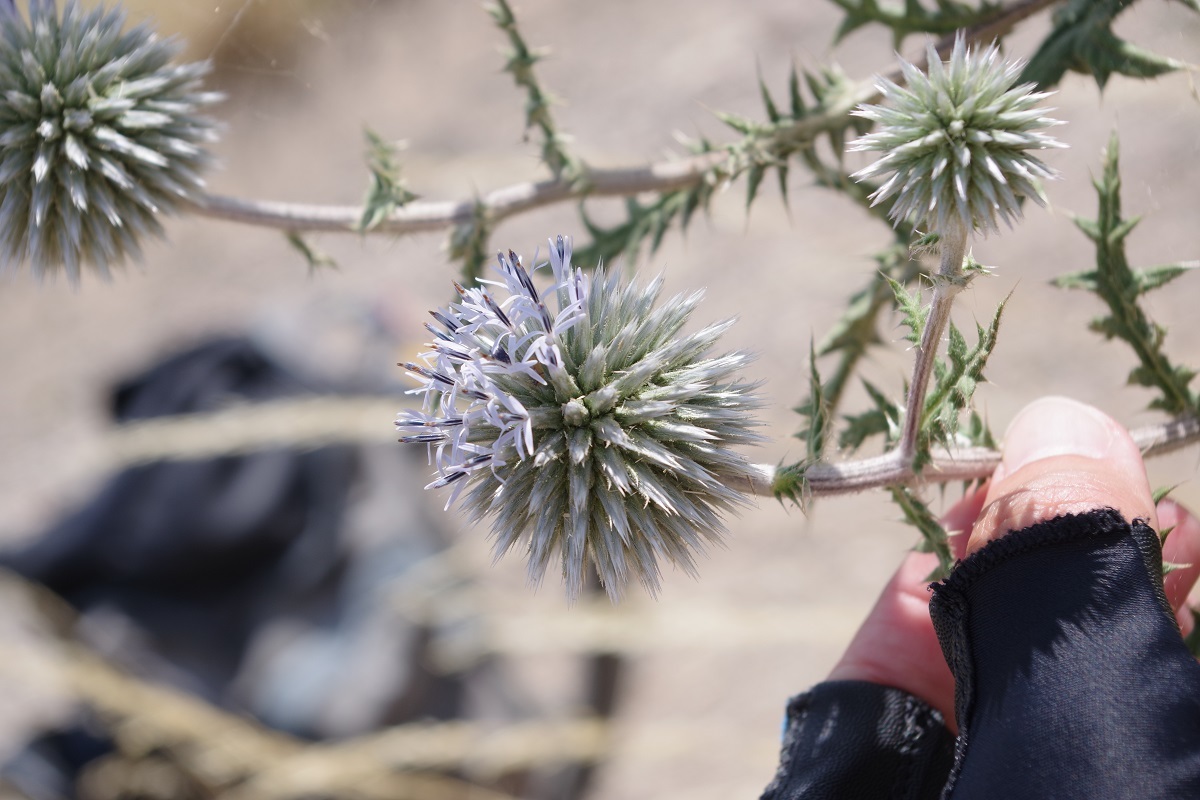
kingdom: Plantae
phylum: Tracheophyta
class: Magnoliopsida
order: Asterales
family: Asteraceae
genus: Echinops
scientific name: Echinops sphaerocephalus
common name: Glandular globe-thistle
